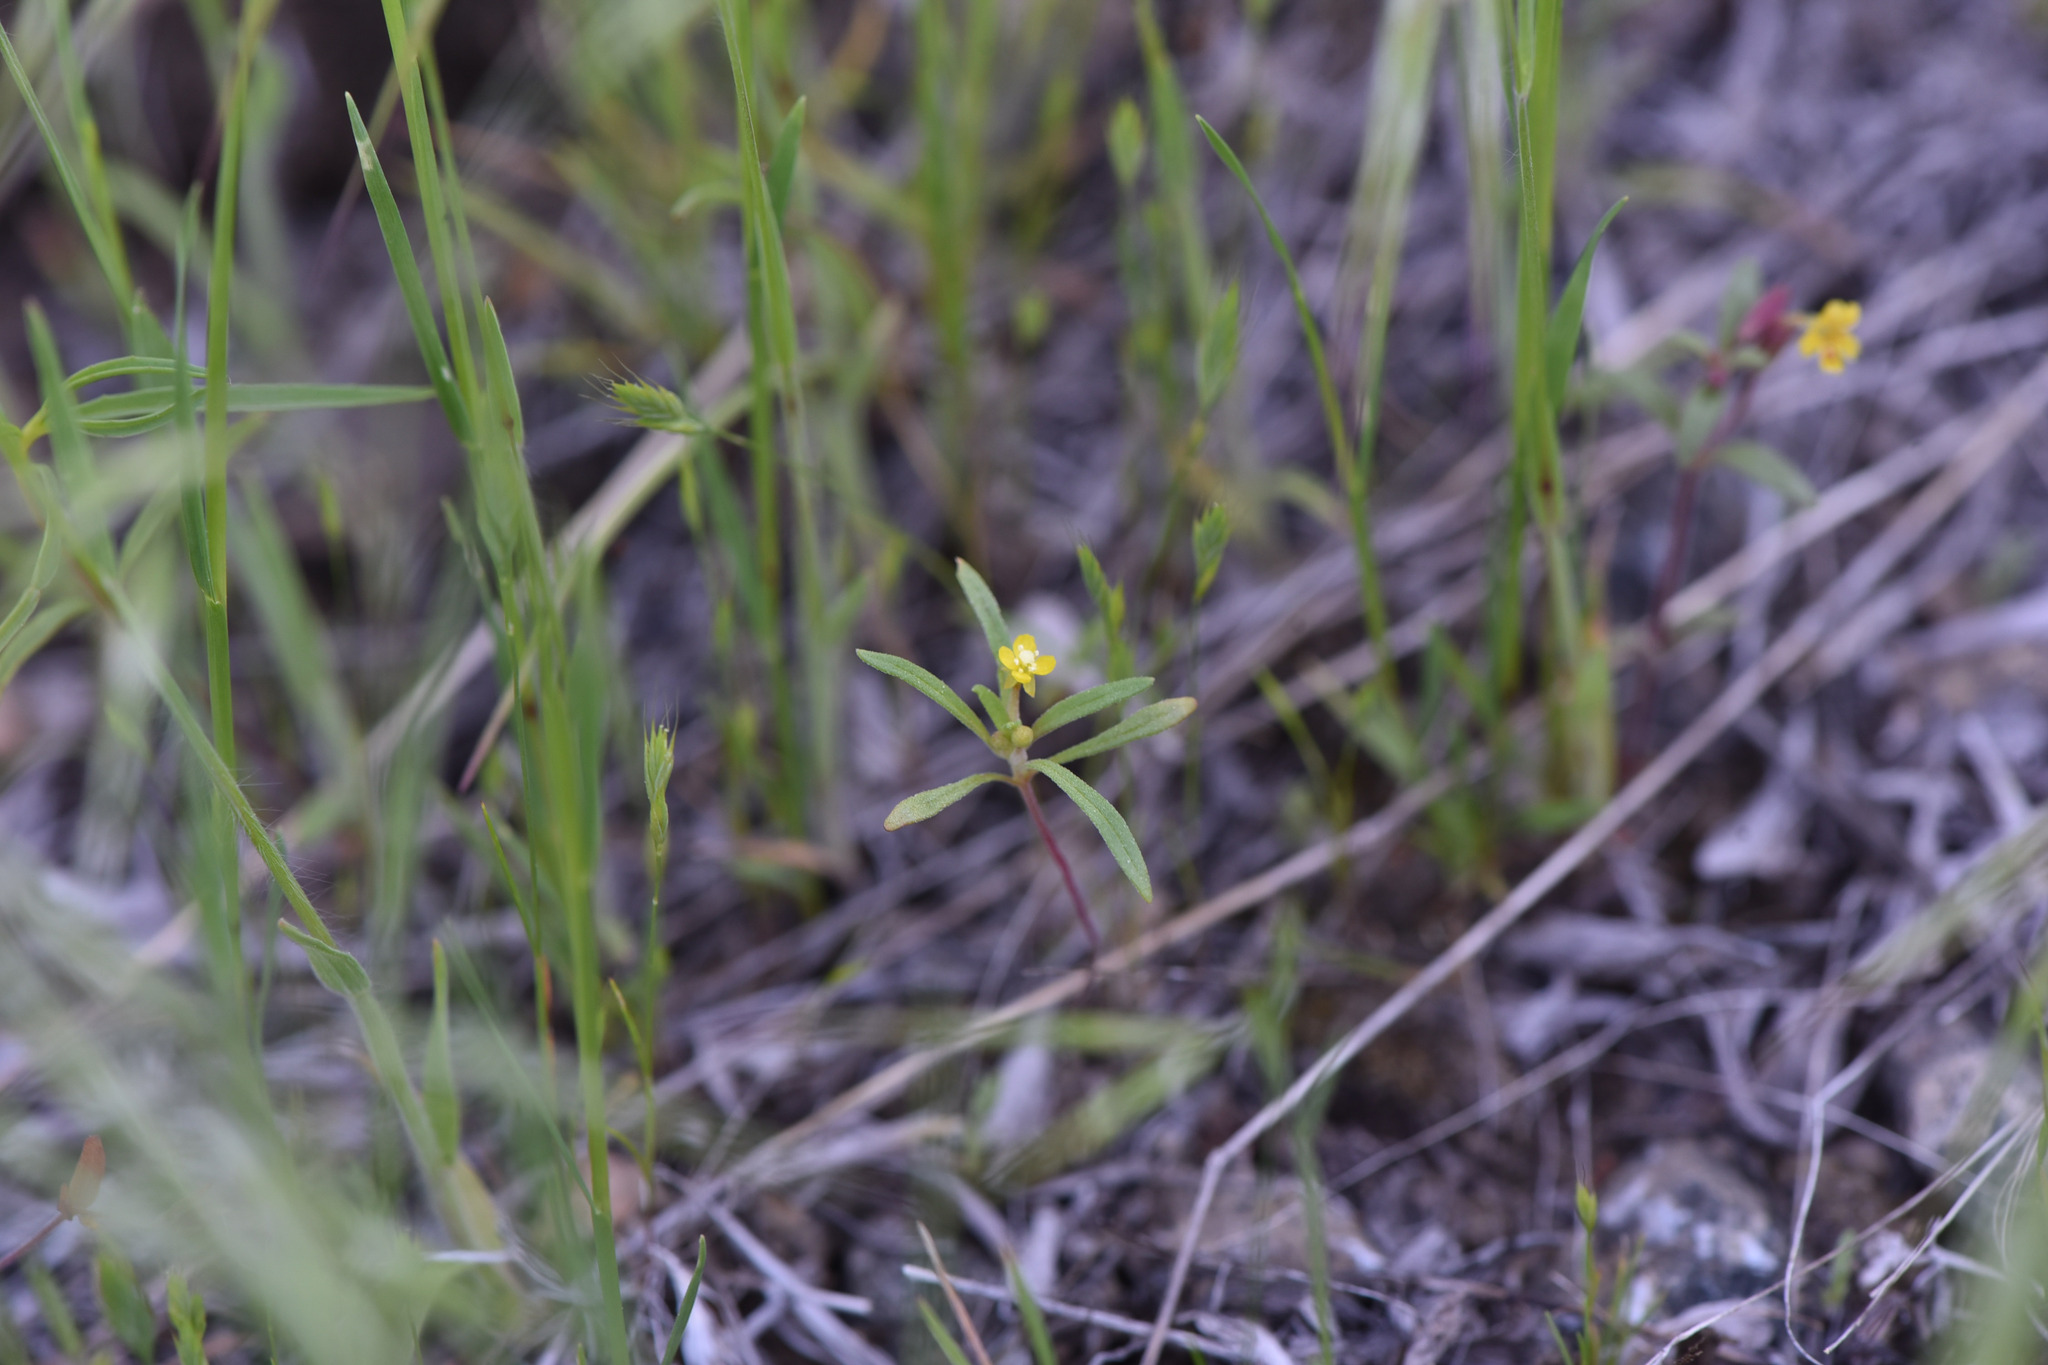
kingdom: Plantae
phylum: Tracheophyta
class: Magnoliopsida
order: Myrtales
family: Onagraceae
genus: Neoholmgrenia
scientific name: Neoholmgrenia andina
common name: Andean evening primrose
